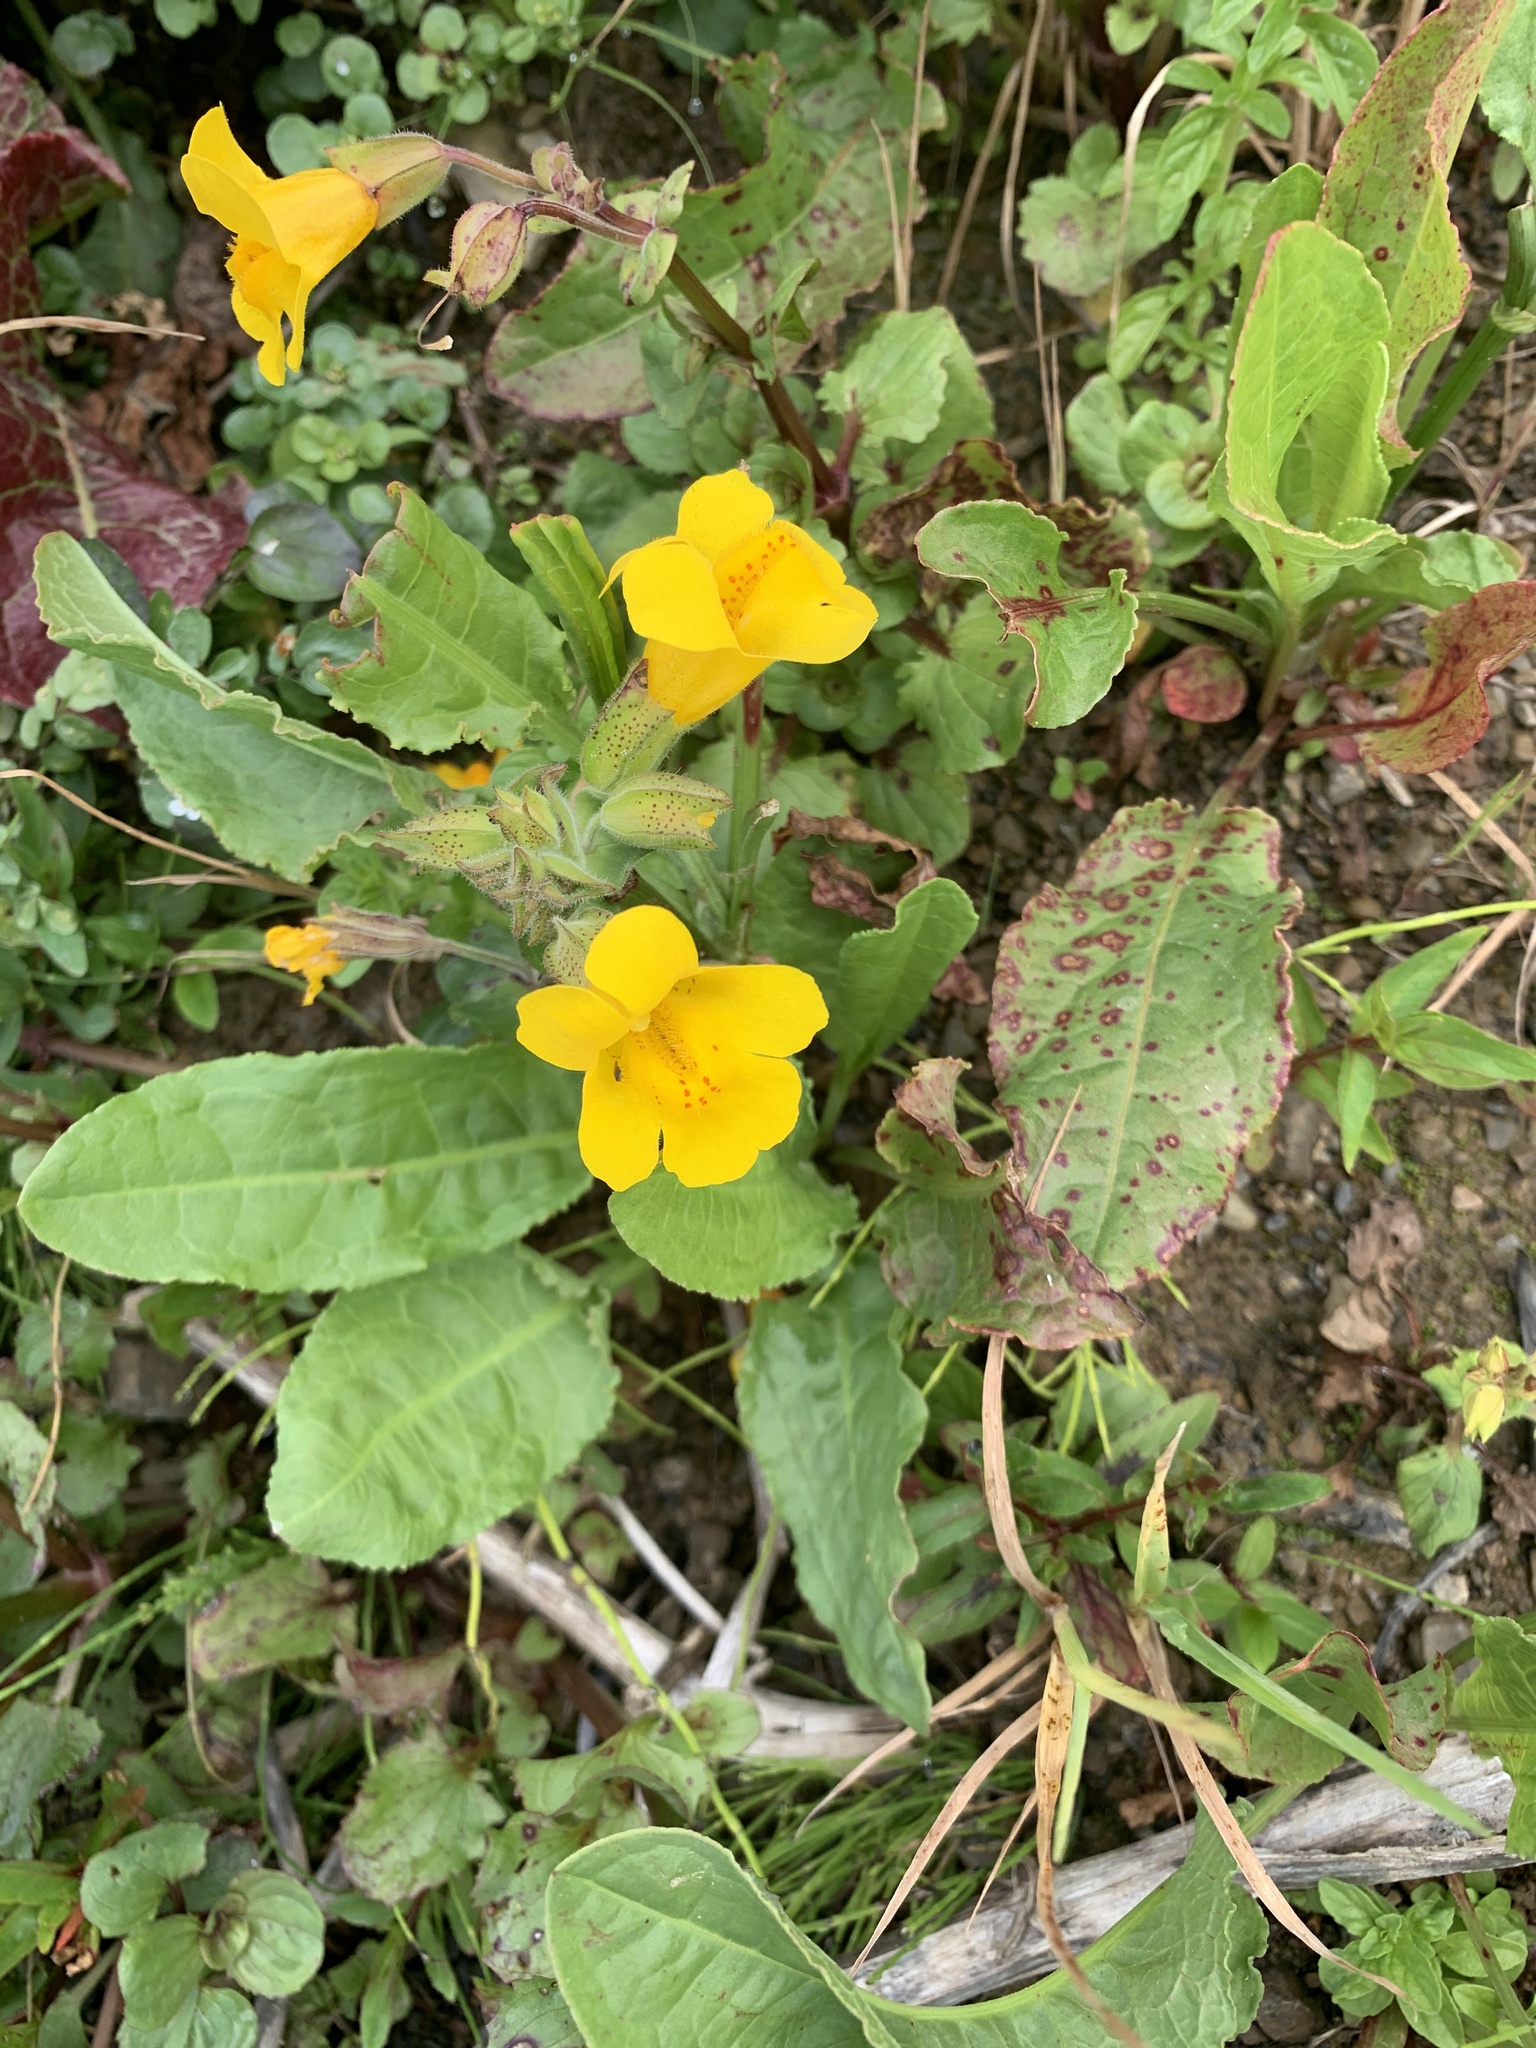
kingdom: Plantae
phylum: Tracheophyta
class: Magnoliopsida
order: Lamiales
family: Phrymaceae
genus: Erythranthe
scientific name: Erythranthe grandis
